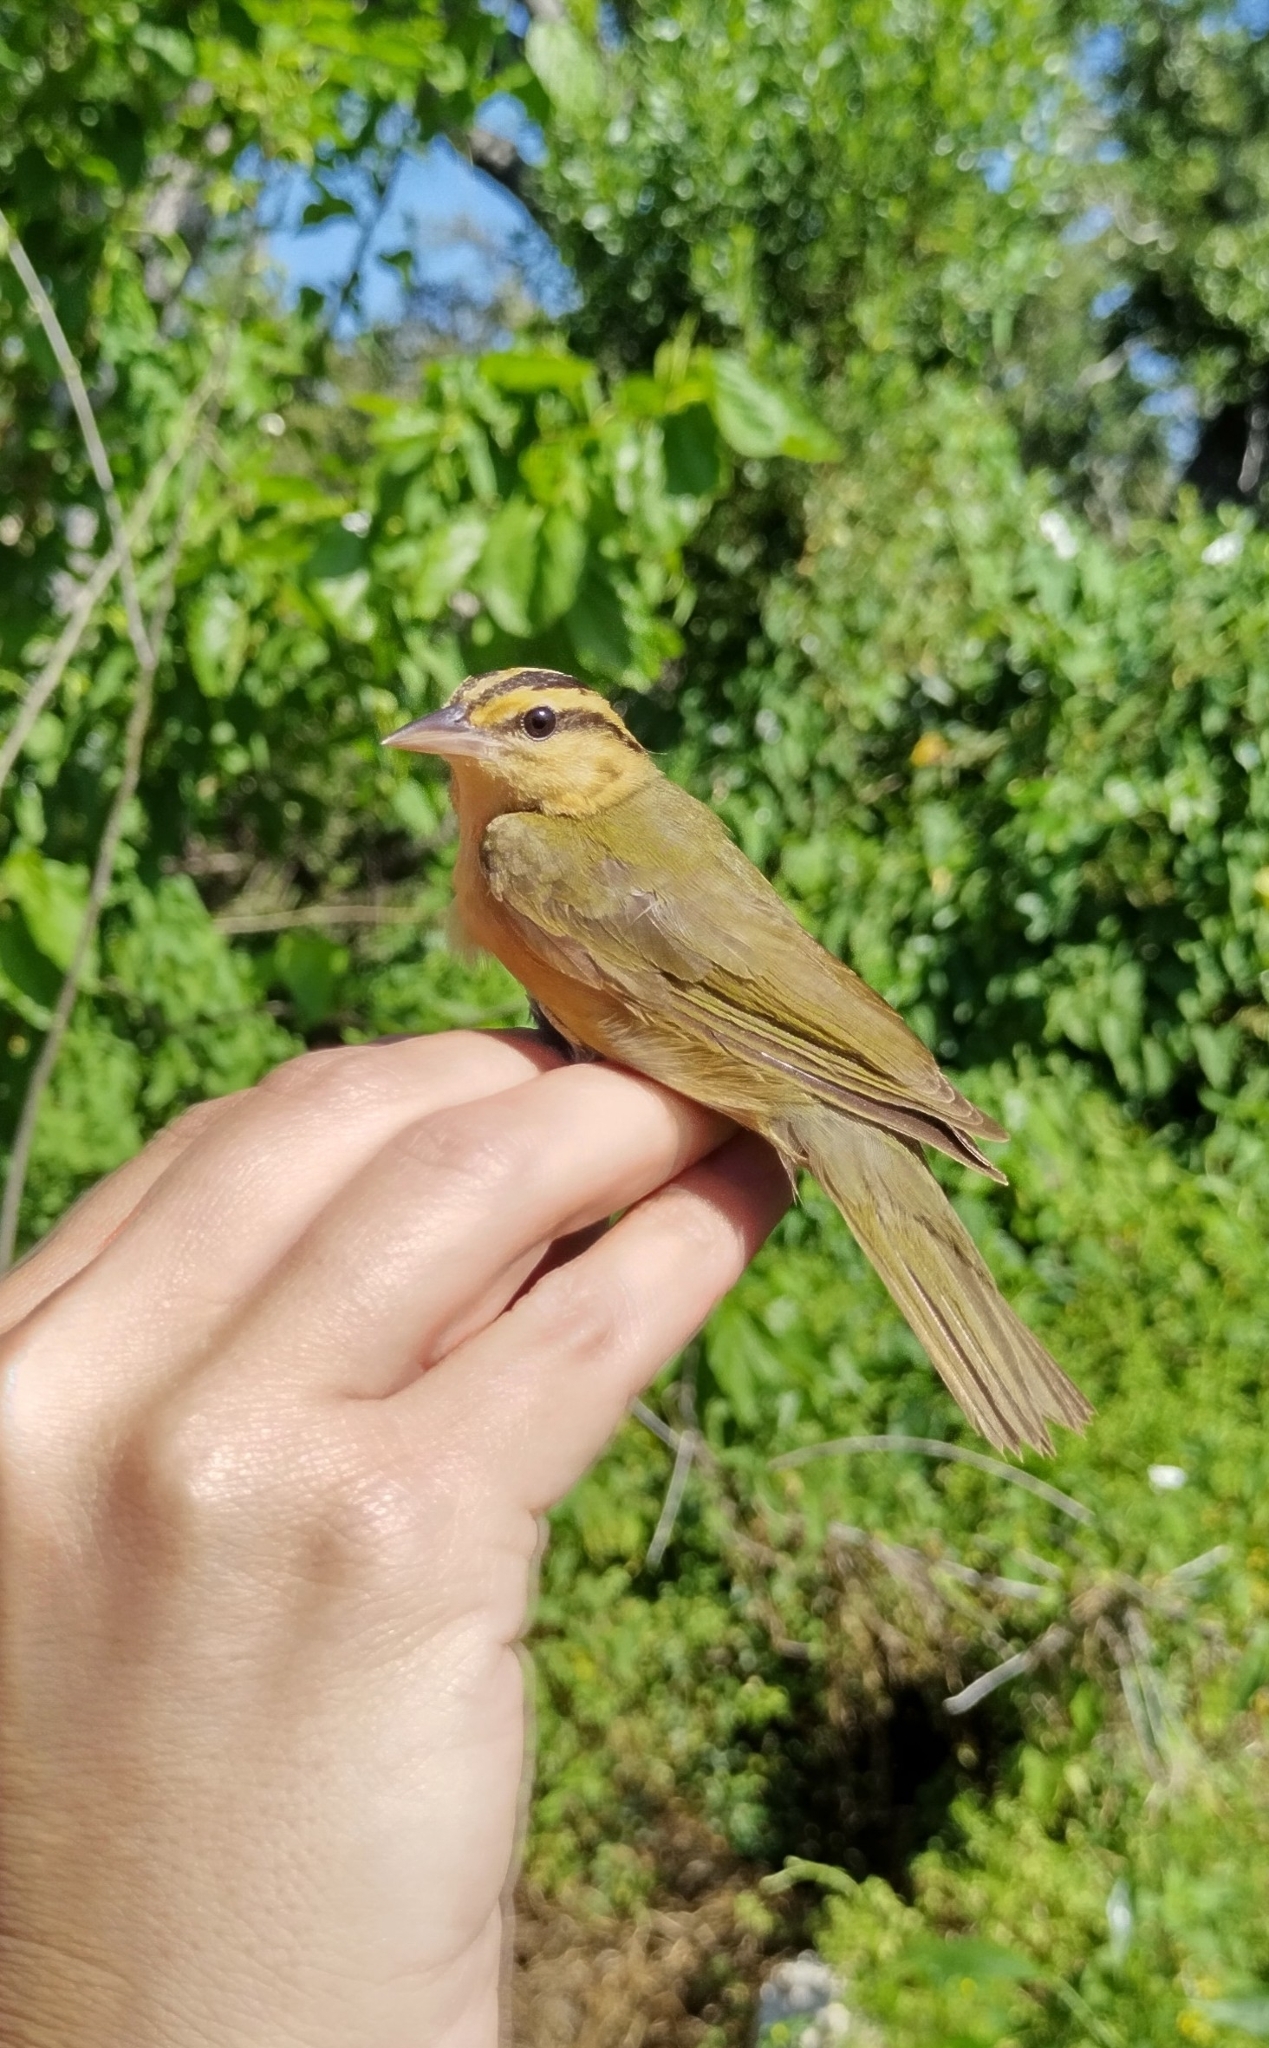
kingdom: Animalia
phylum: Chordata
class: Aves
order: Passeriformes
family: Parulidae
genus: Helmitheros
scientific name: Helmitheros vermivorum
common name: Worm-eating warbler
